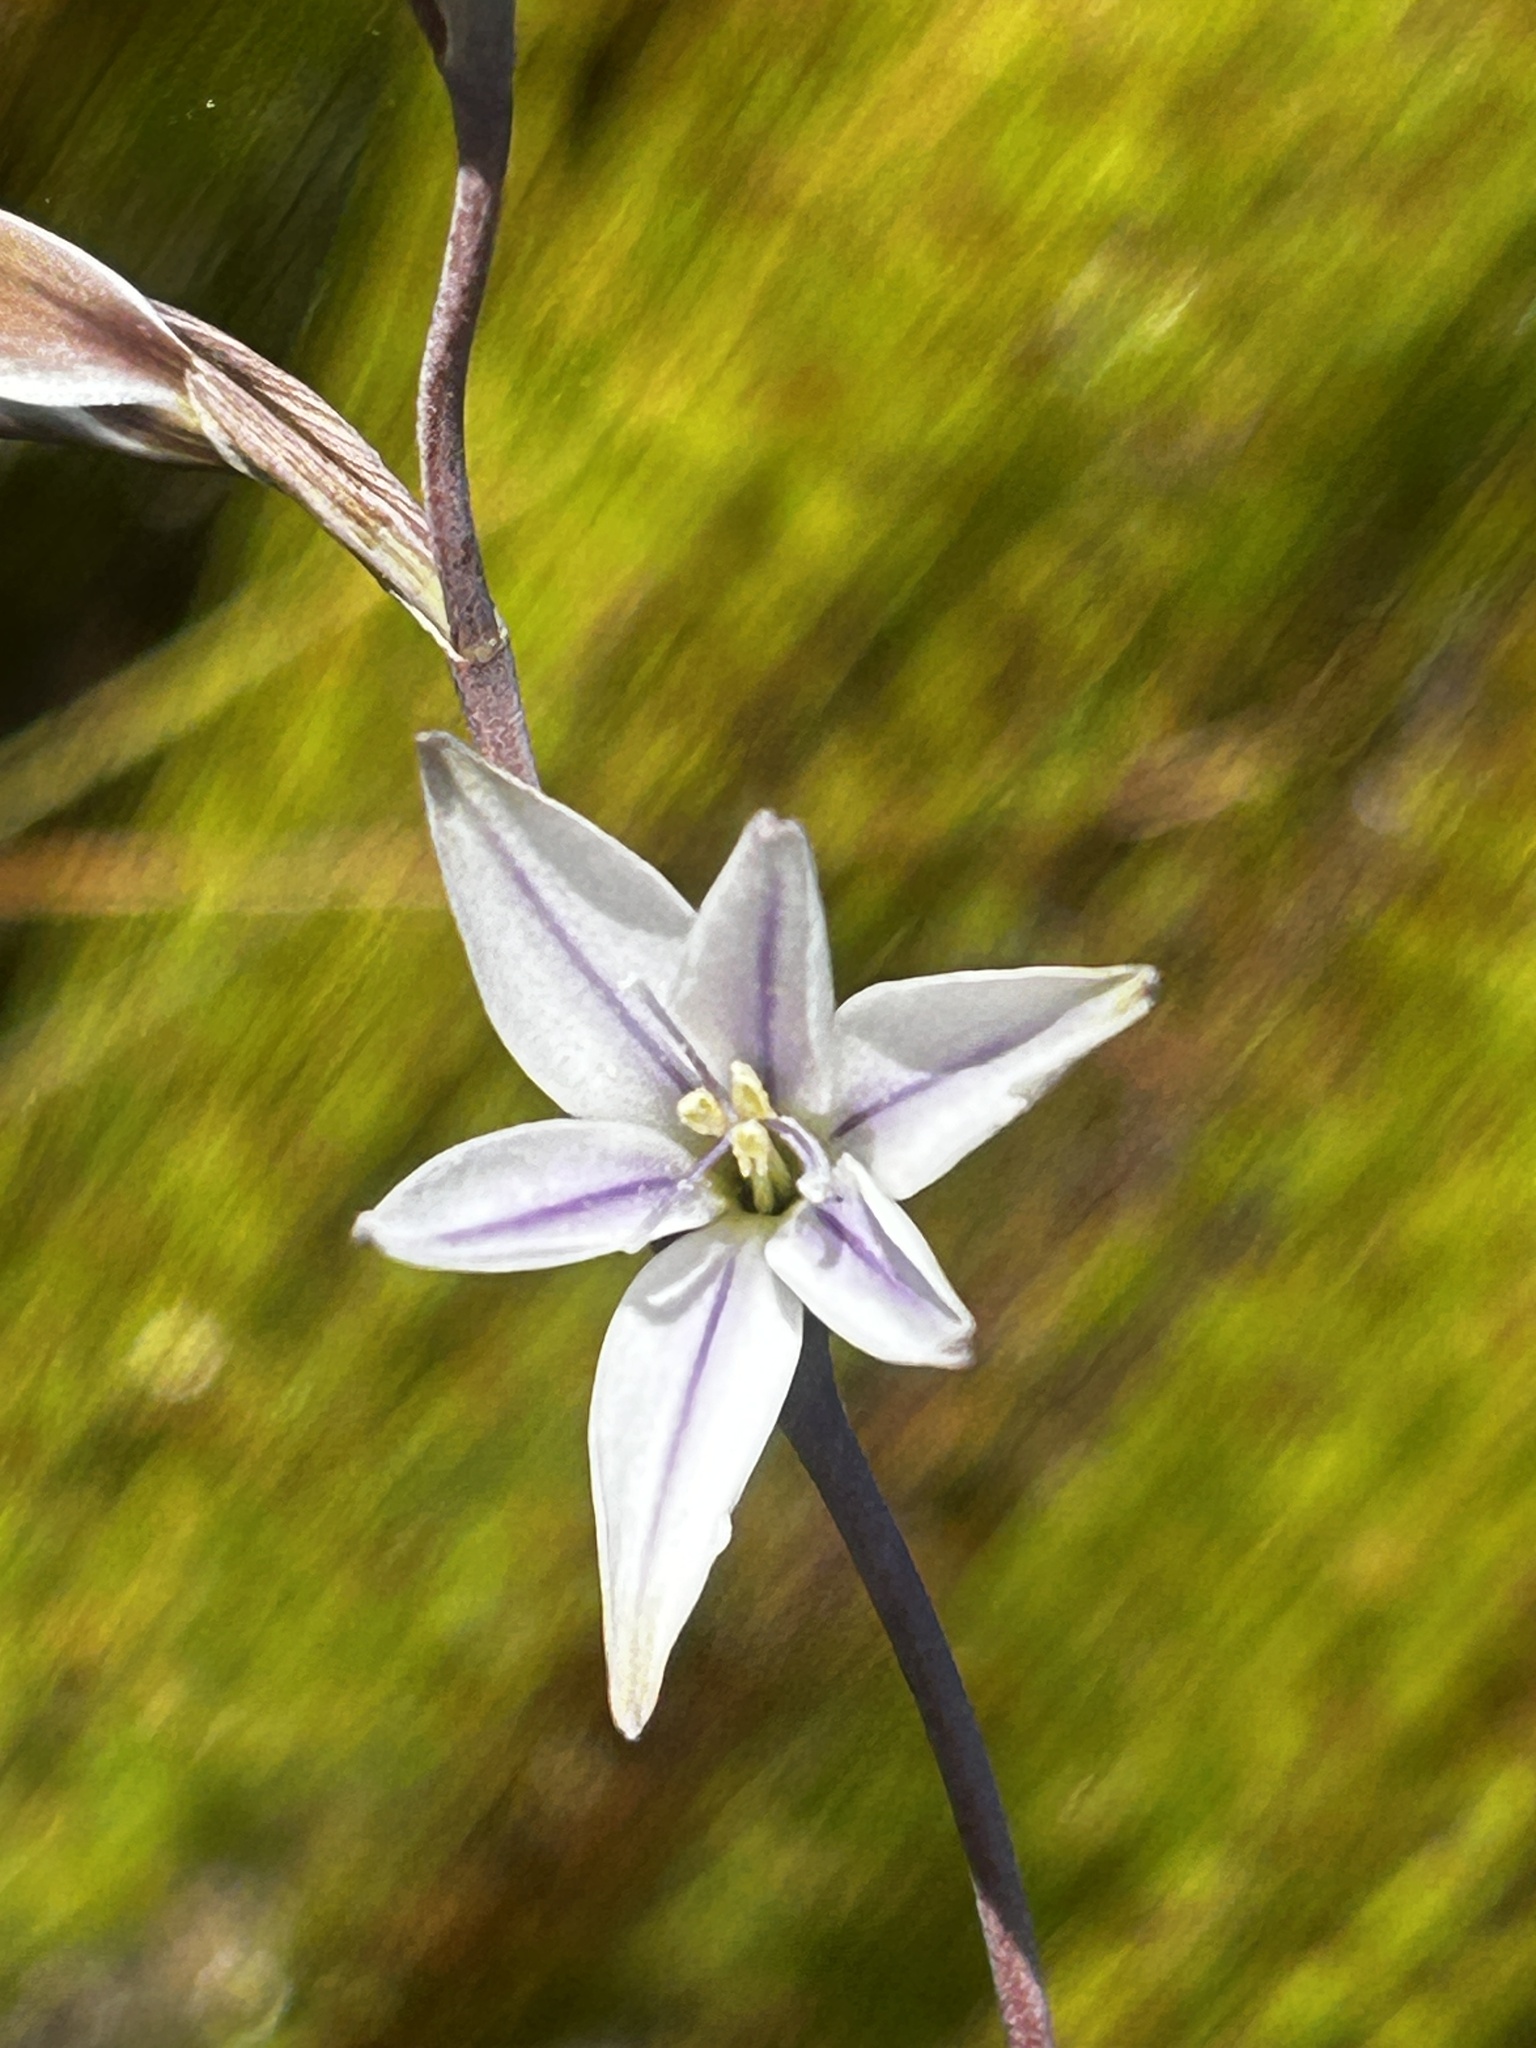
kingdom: Plantae
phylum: Tracheophyta
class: Liliopsida
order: Asparagales
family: Iridaceae
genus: Gladiolus
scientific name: Gladiolus stellatus
